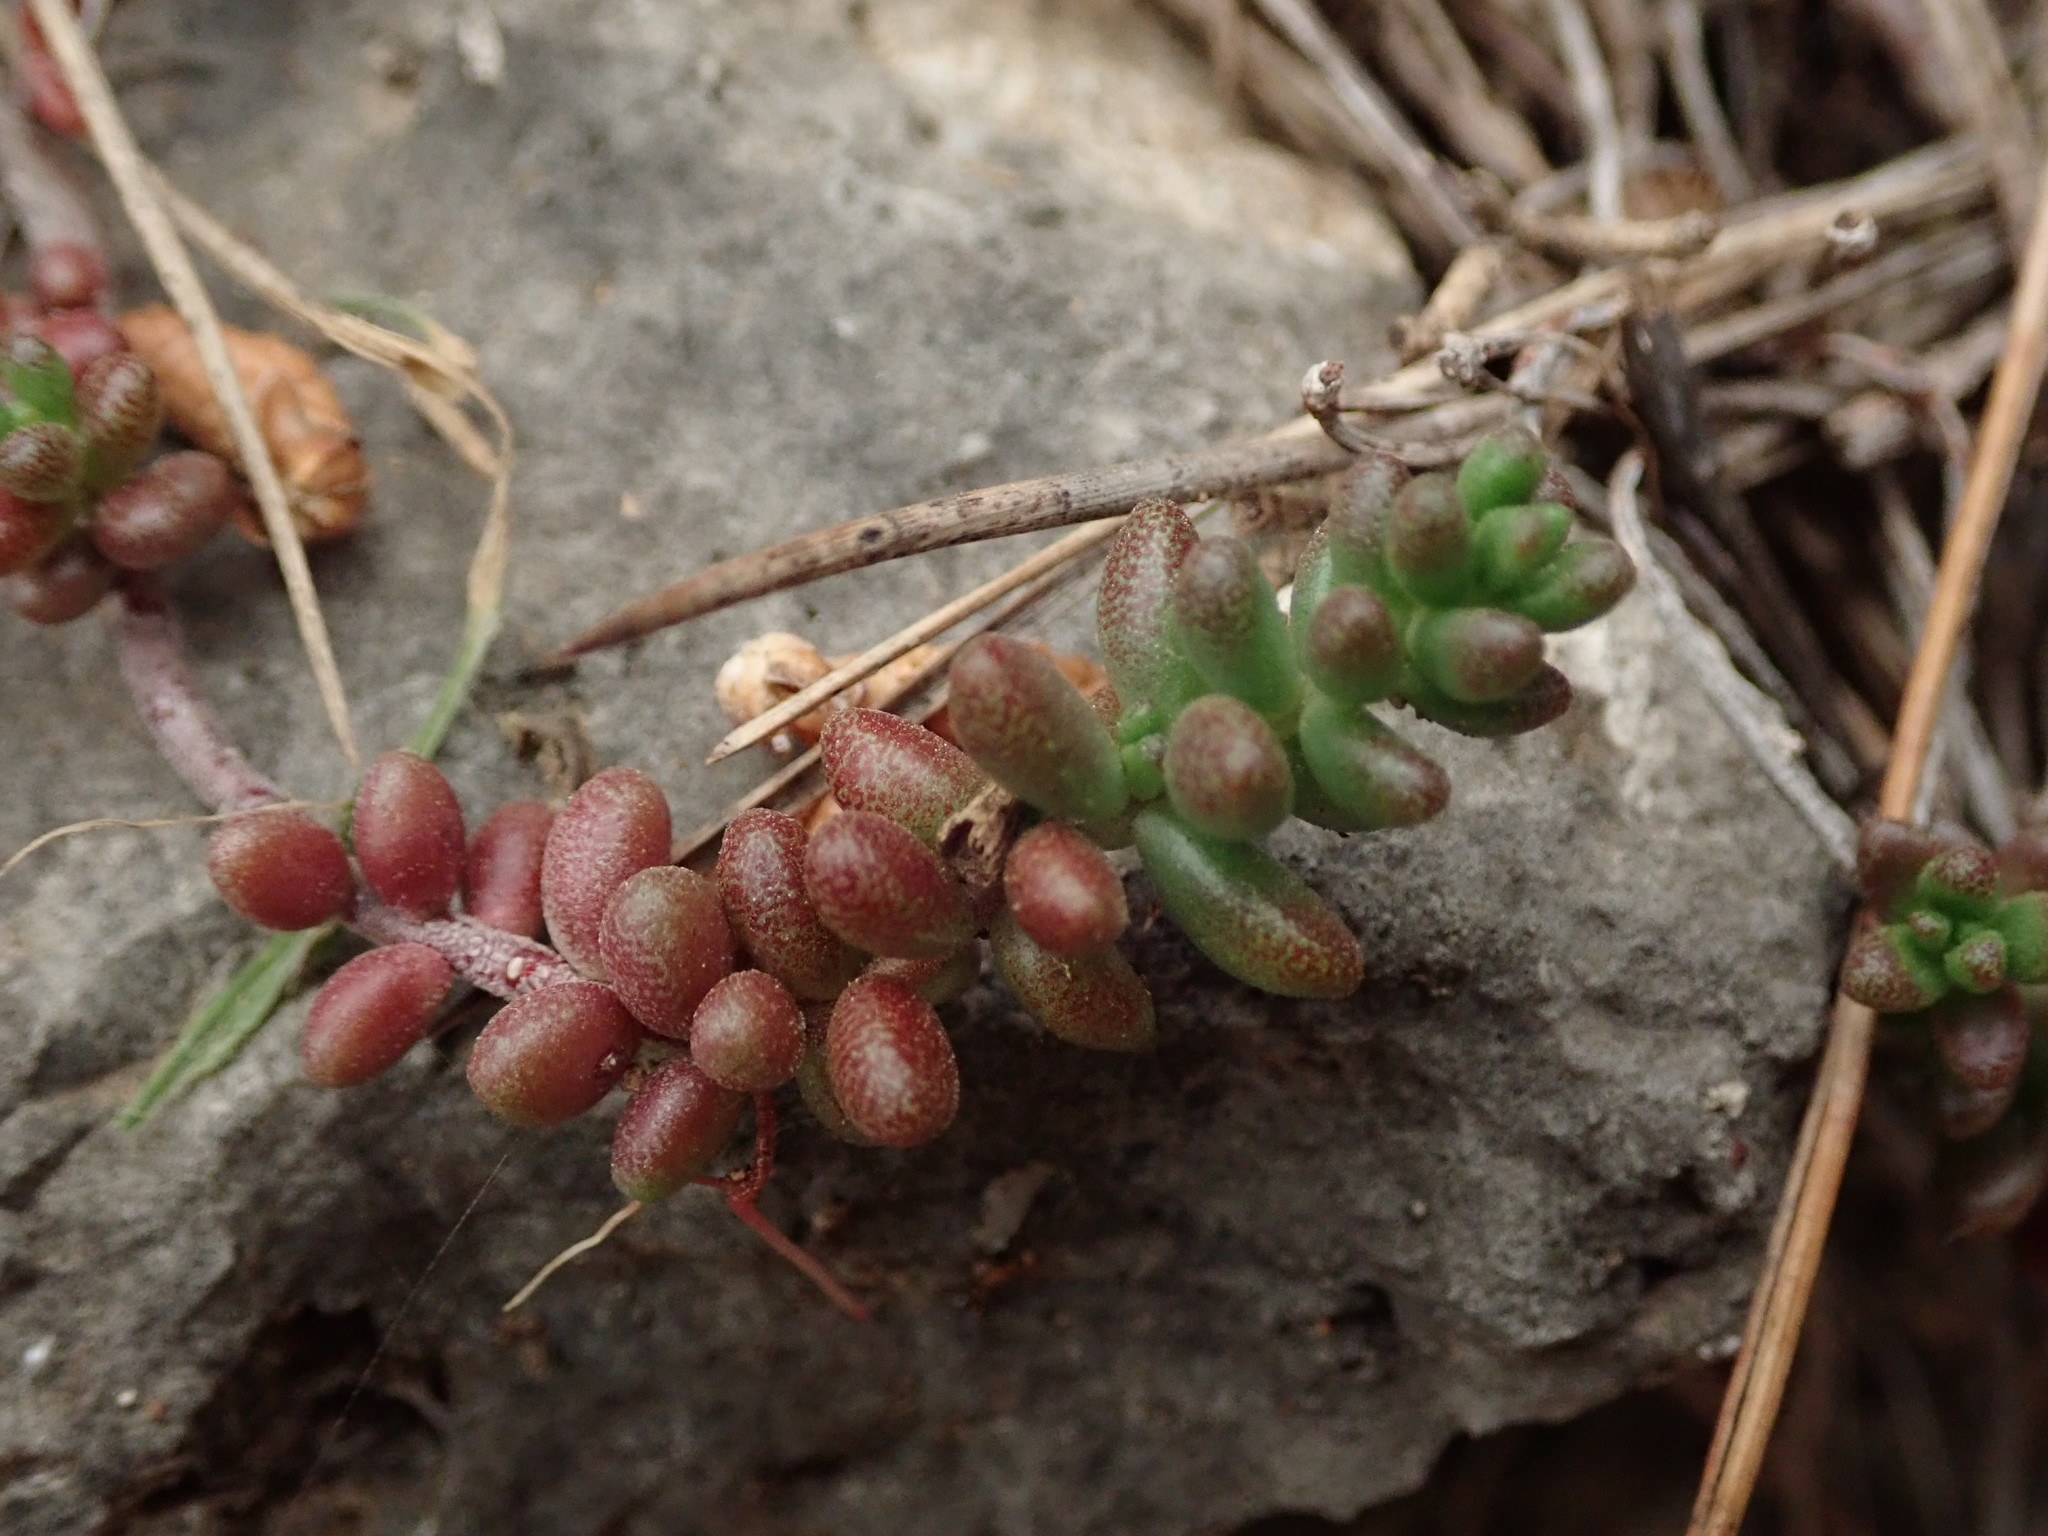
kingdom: Plantae
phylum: Tracheophyta
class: Magnoliopsida
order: Saxifragales
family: Crassulaceae
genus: Sedum
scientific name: Sedum album
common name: White stonecrop
